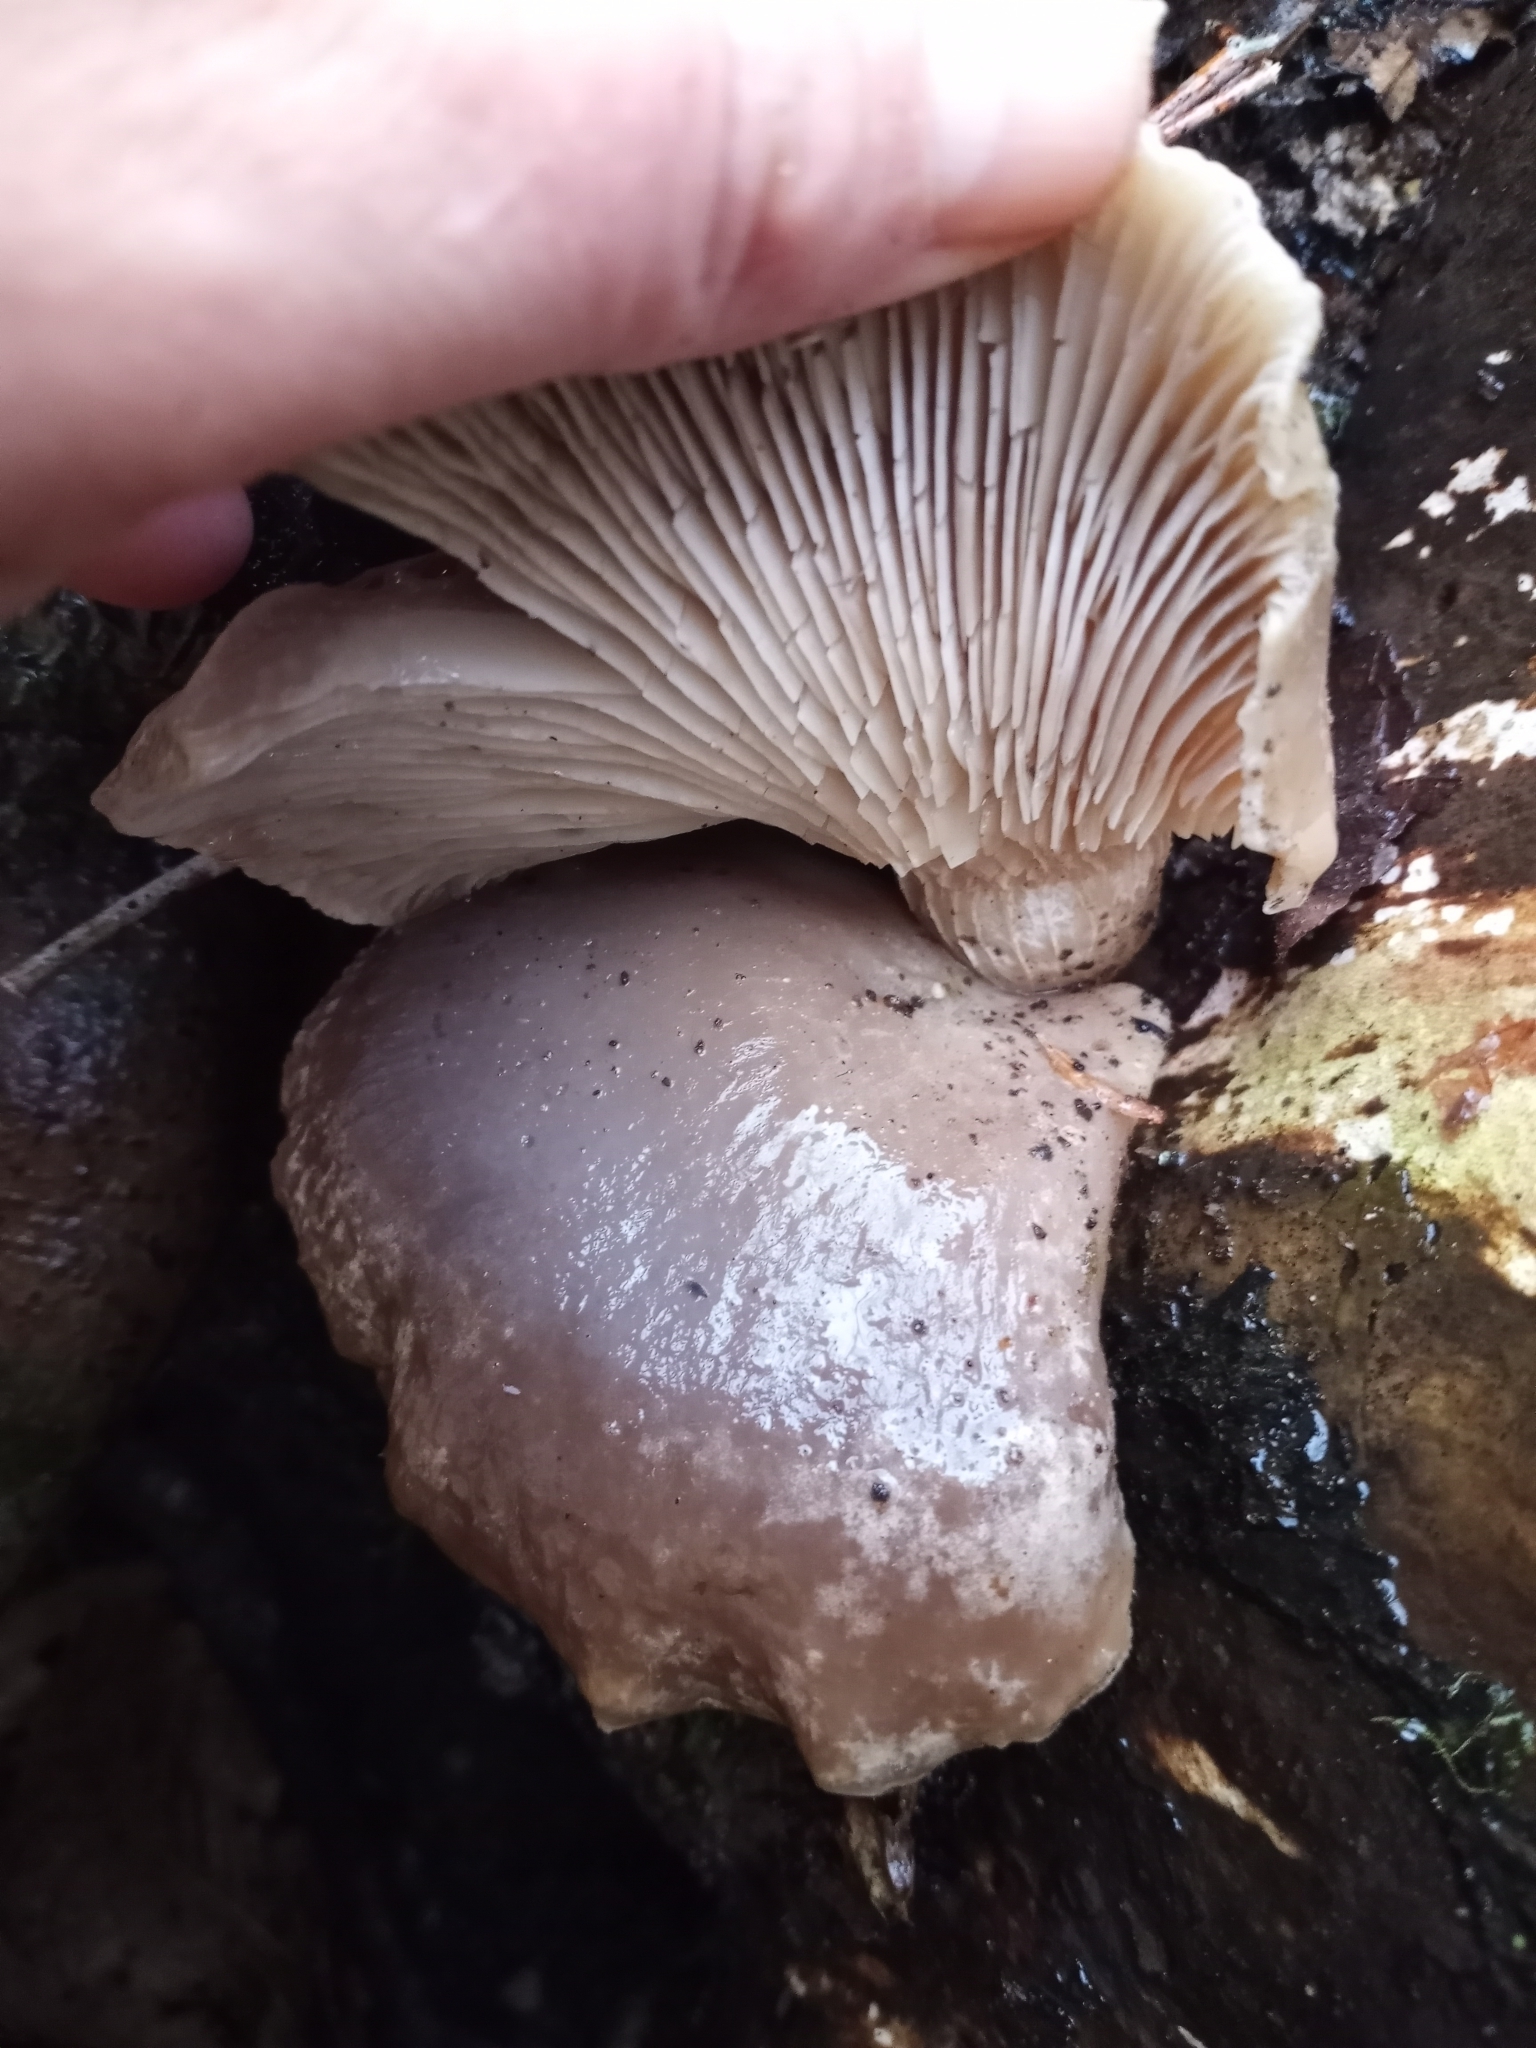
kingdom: Fungi
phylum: Basidiomycota
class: Agaricomycetes
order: Agaricales
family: Pleurotaceae
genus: Pleurotus
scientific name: Pleurotus ostreatus
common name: Oyster mushroom
